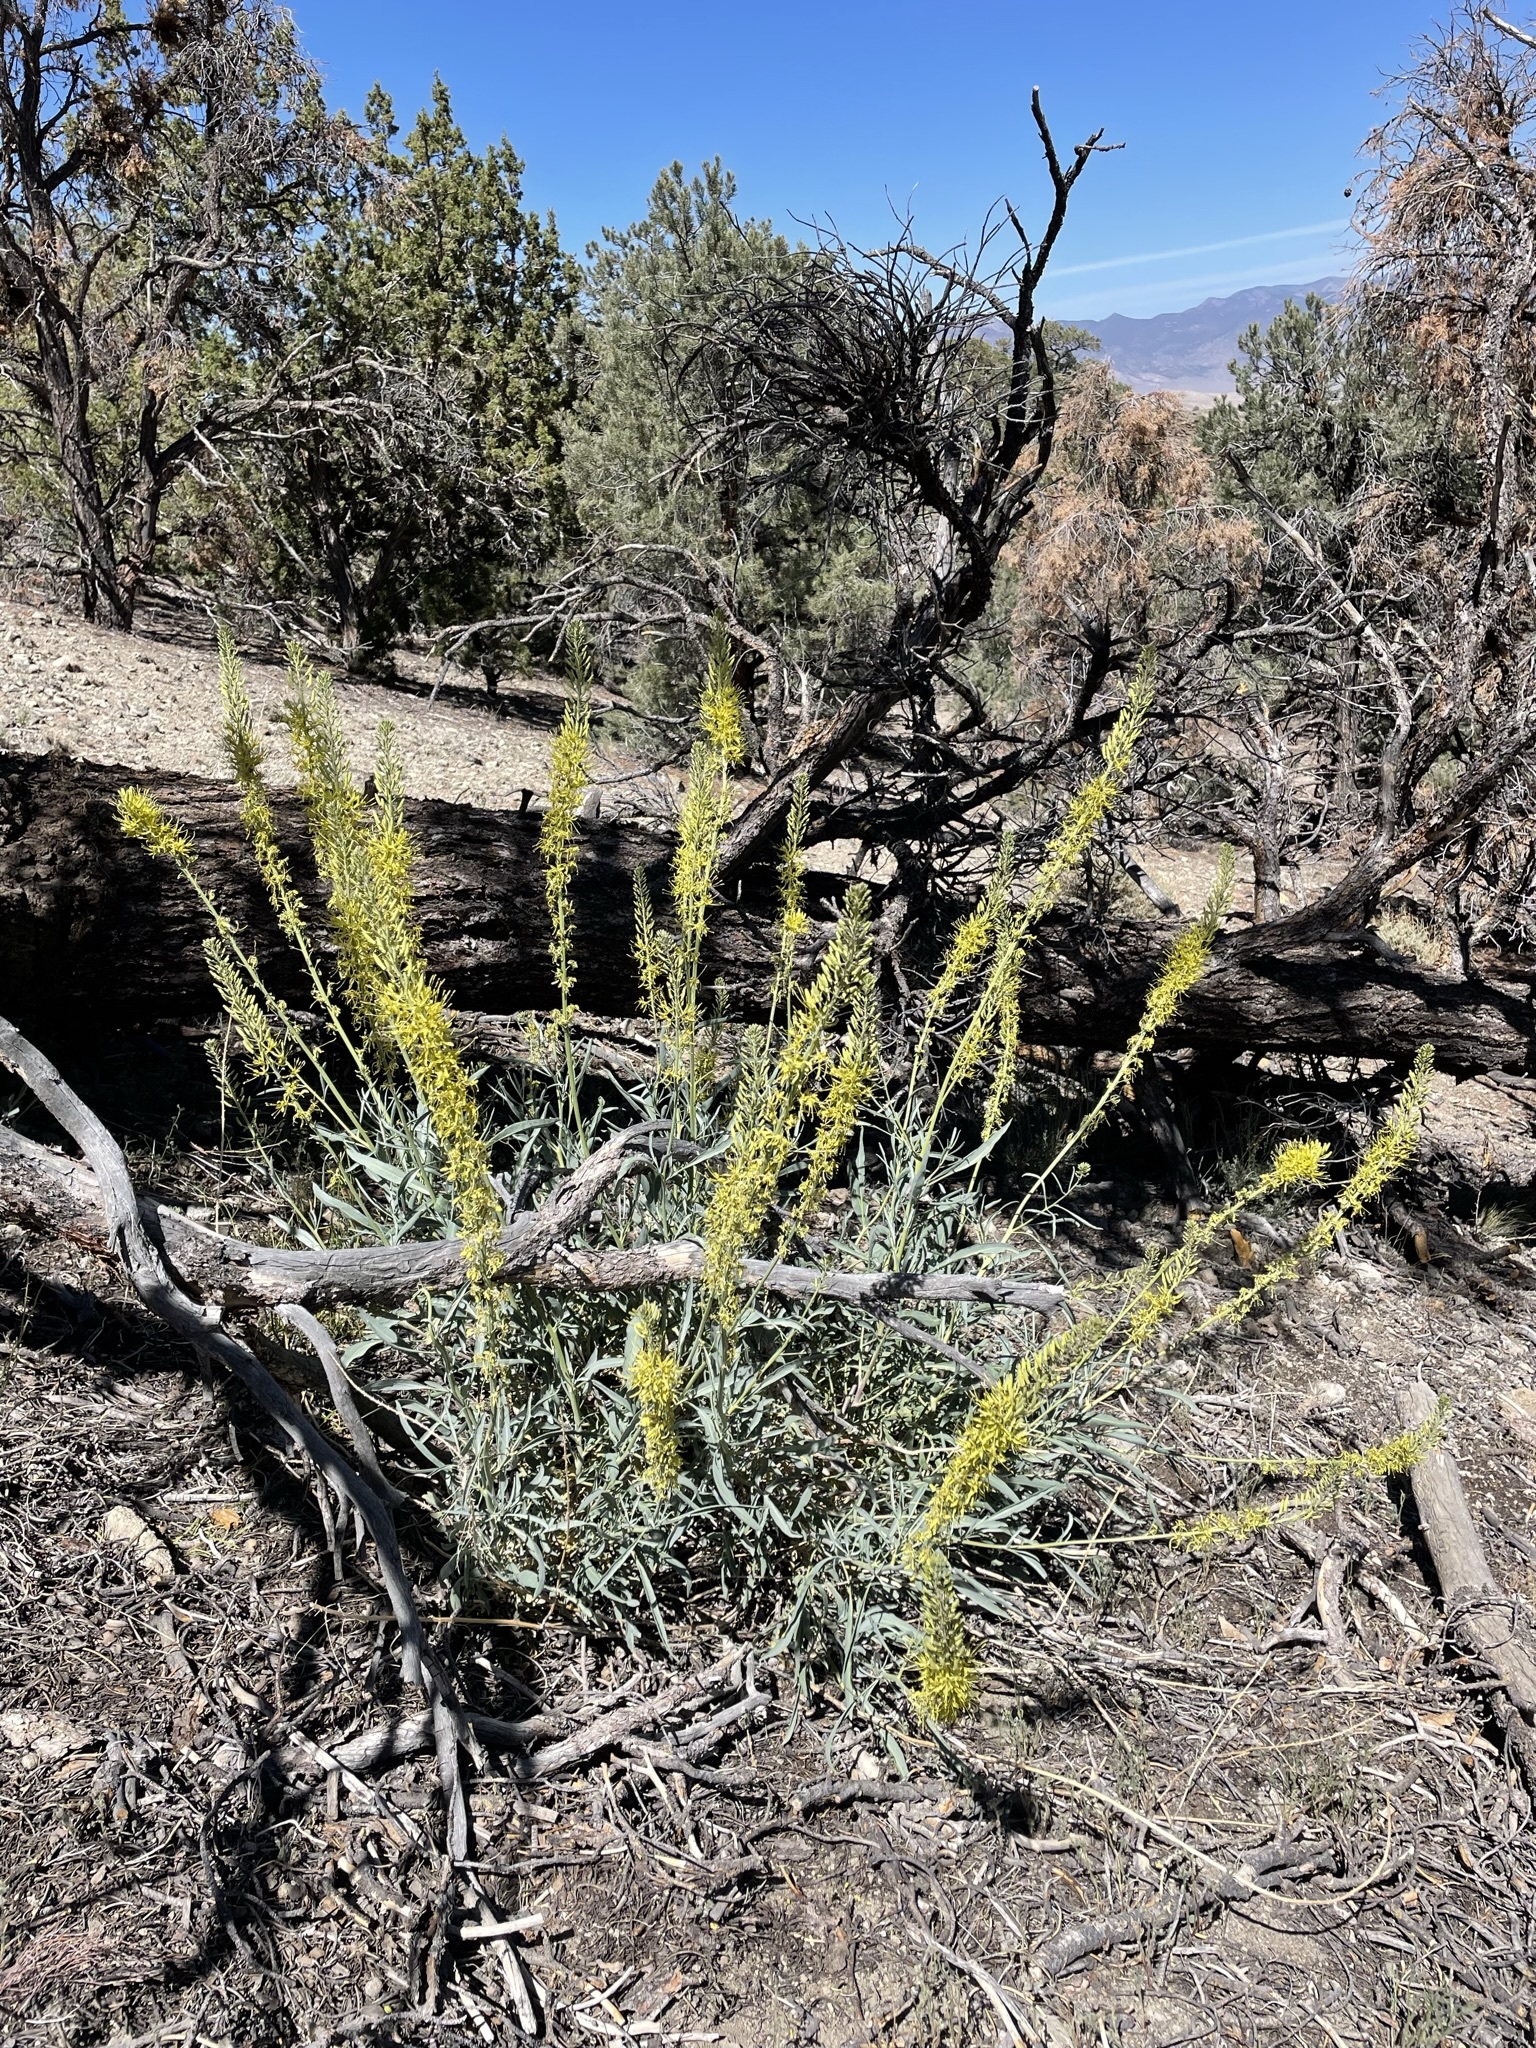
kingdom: Plantae
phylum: Tracheophyta
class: Magnoliopsida
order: Brassicales
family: Brassicaceae
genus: Stanleya
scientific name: Stanleya pinnata
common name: Prince's-plume
